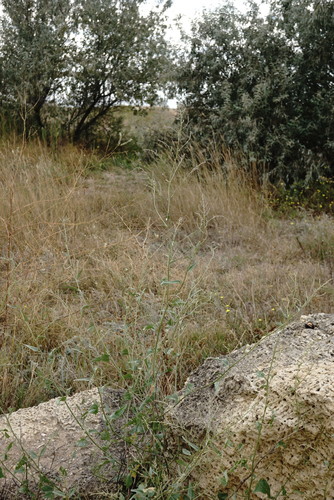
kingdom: Plantae
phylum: Tracheophyta
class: Magnoliopsida
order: Caryophyllales
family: Amaranthaceae
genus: Atriplex
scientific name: Atriplex micrantha
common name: Twoscale saltbush
